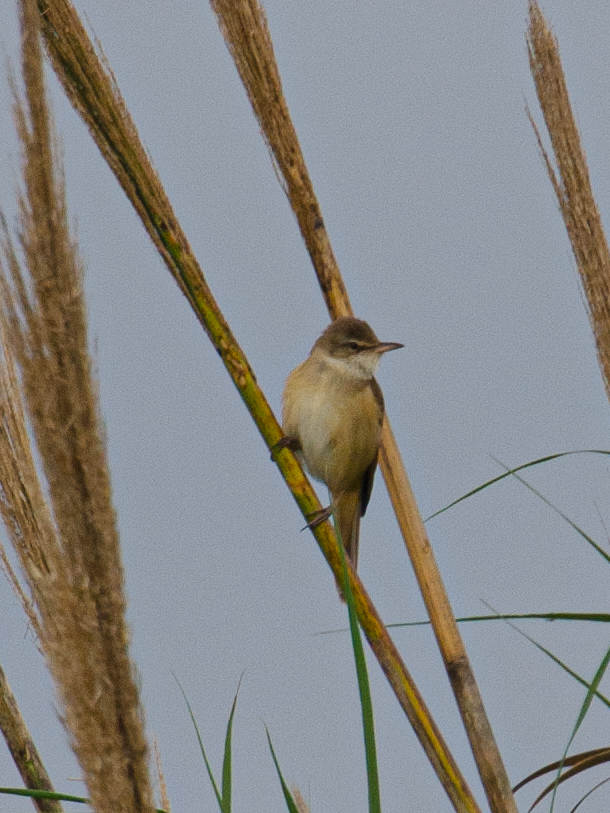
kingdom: Animalia
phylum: Chordata
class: Aves
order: Passeriformes
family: Acrocephalidae
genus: Acrocephalus
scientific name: Acrocephalus arundinaceus
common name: Great reed warbler
